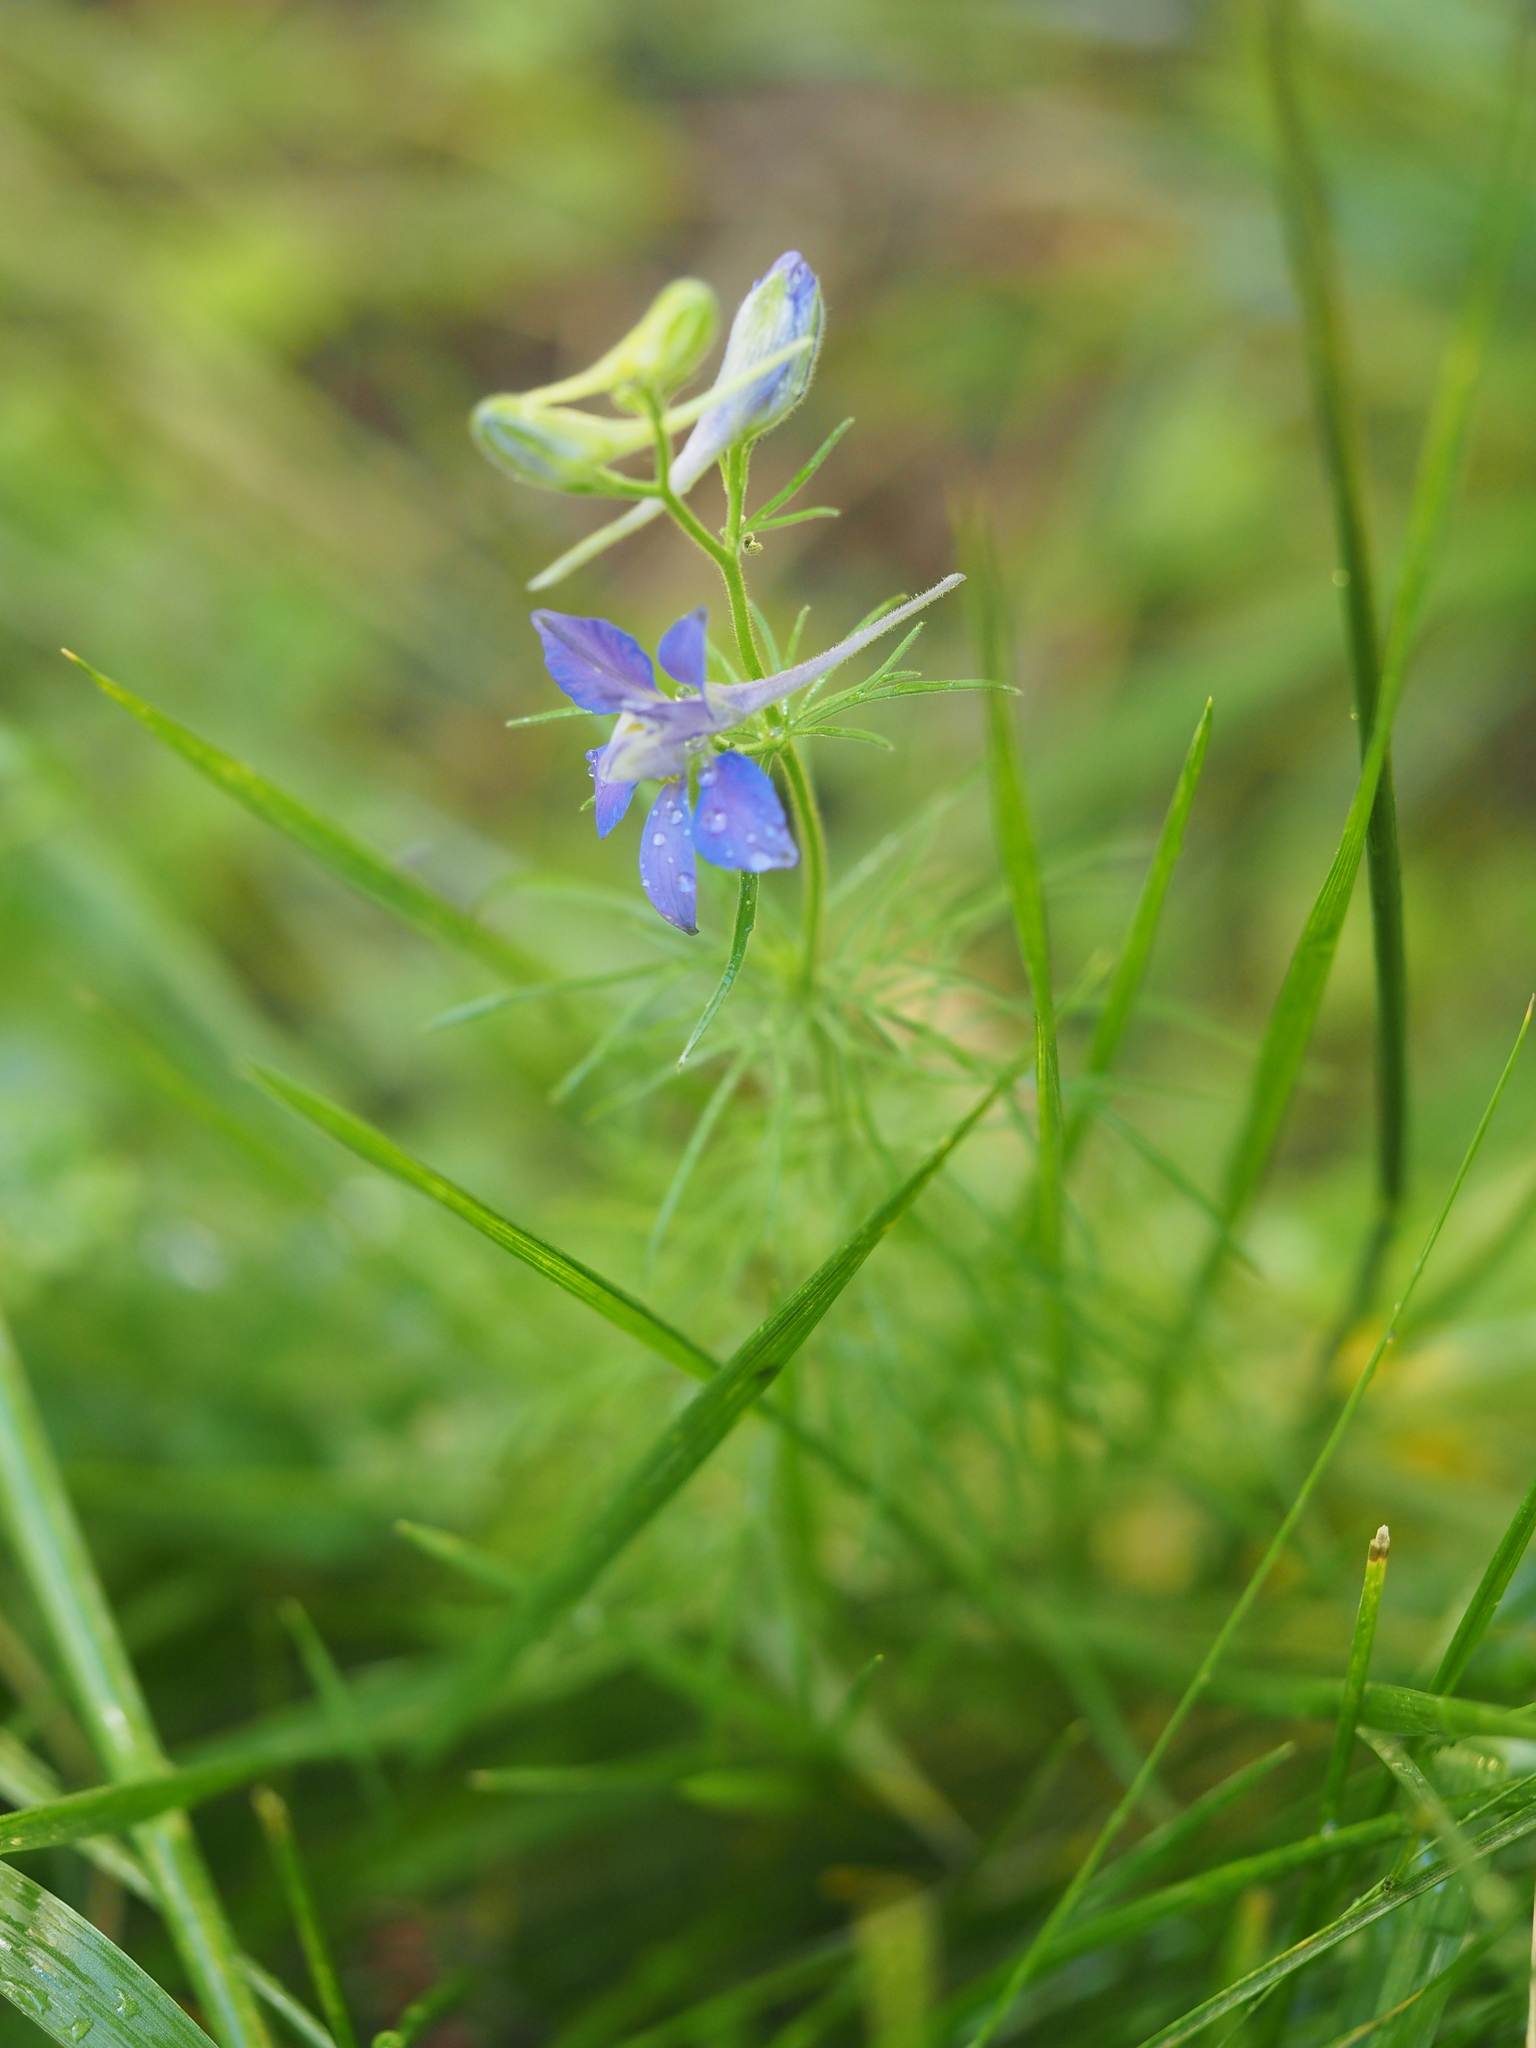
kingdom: Plantae
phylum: Tracheophyta
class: Magnoliopsida
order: Ranunculales
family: Ranunculaceae
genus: Delphinium
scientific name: Delphinium ajacis
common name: Doubtful knight's-spur
